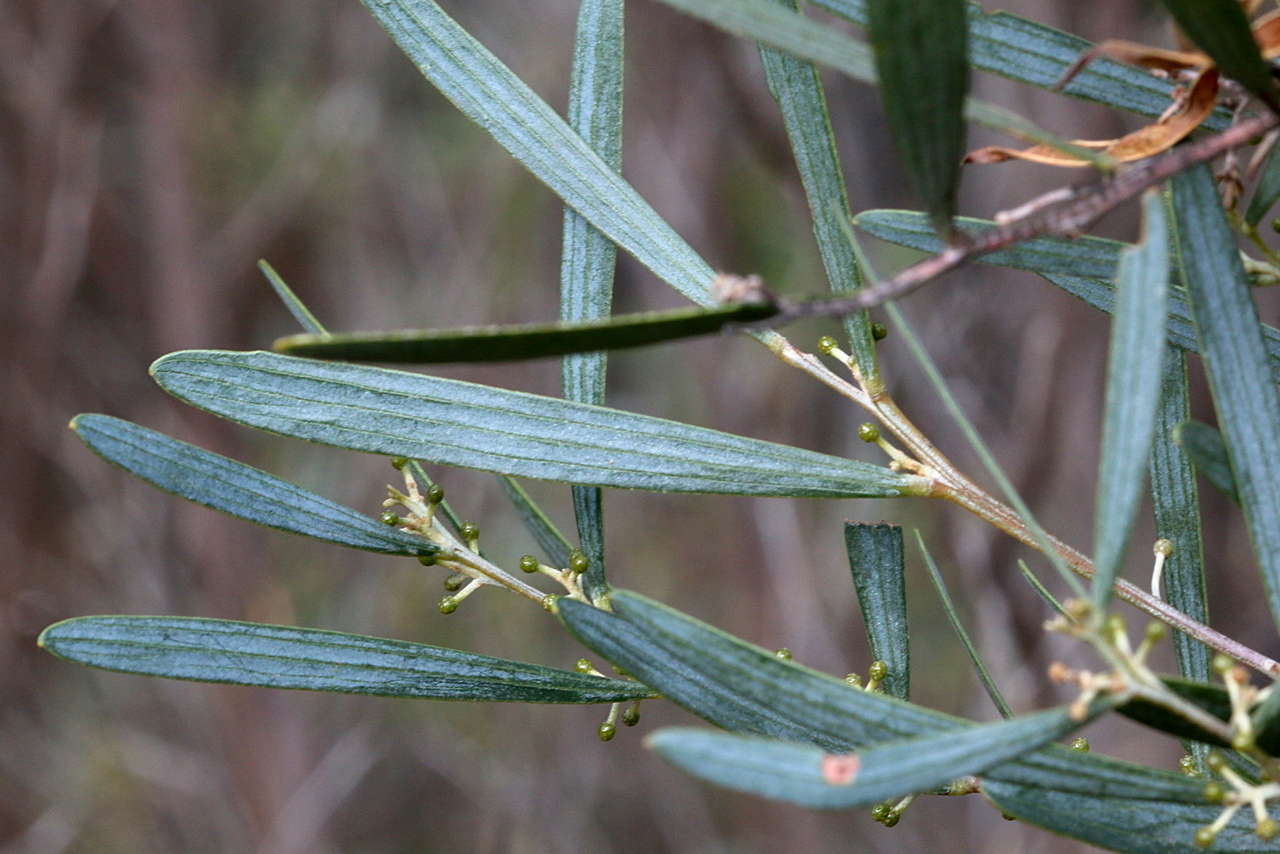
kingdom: Plantae
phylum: Tracheophyta
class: Magnoliopsida
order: Fabales
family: Fabaceae
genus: Acacia
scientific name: Acacia trineura
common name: Green wattle
